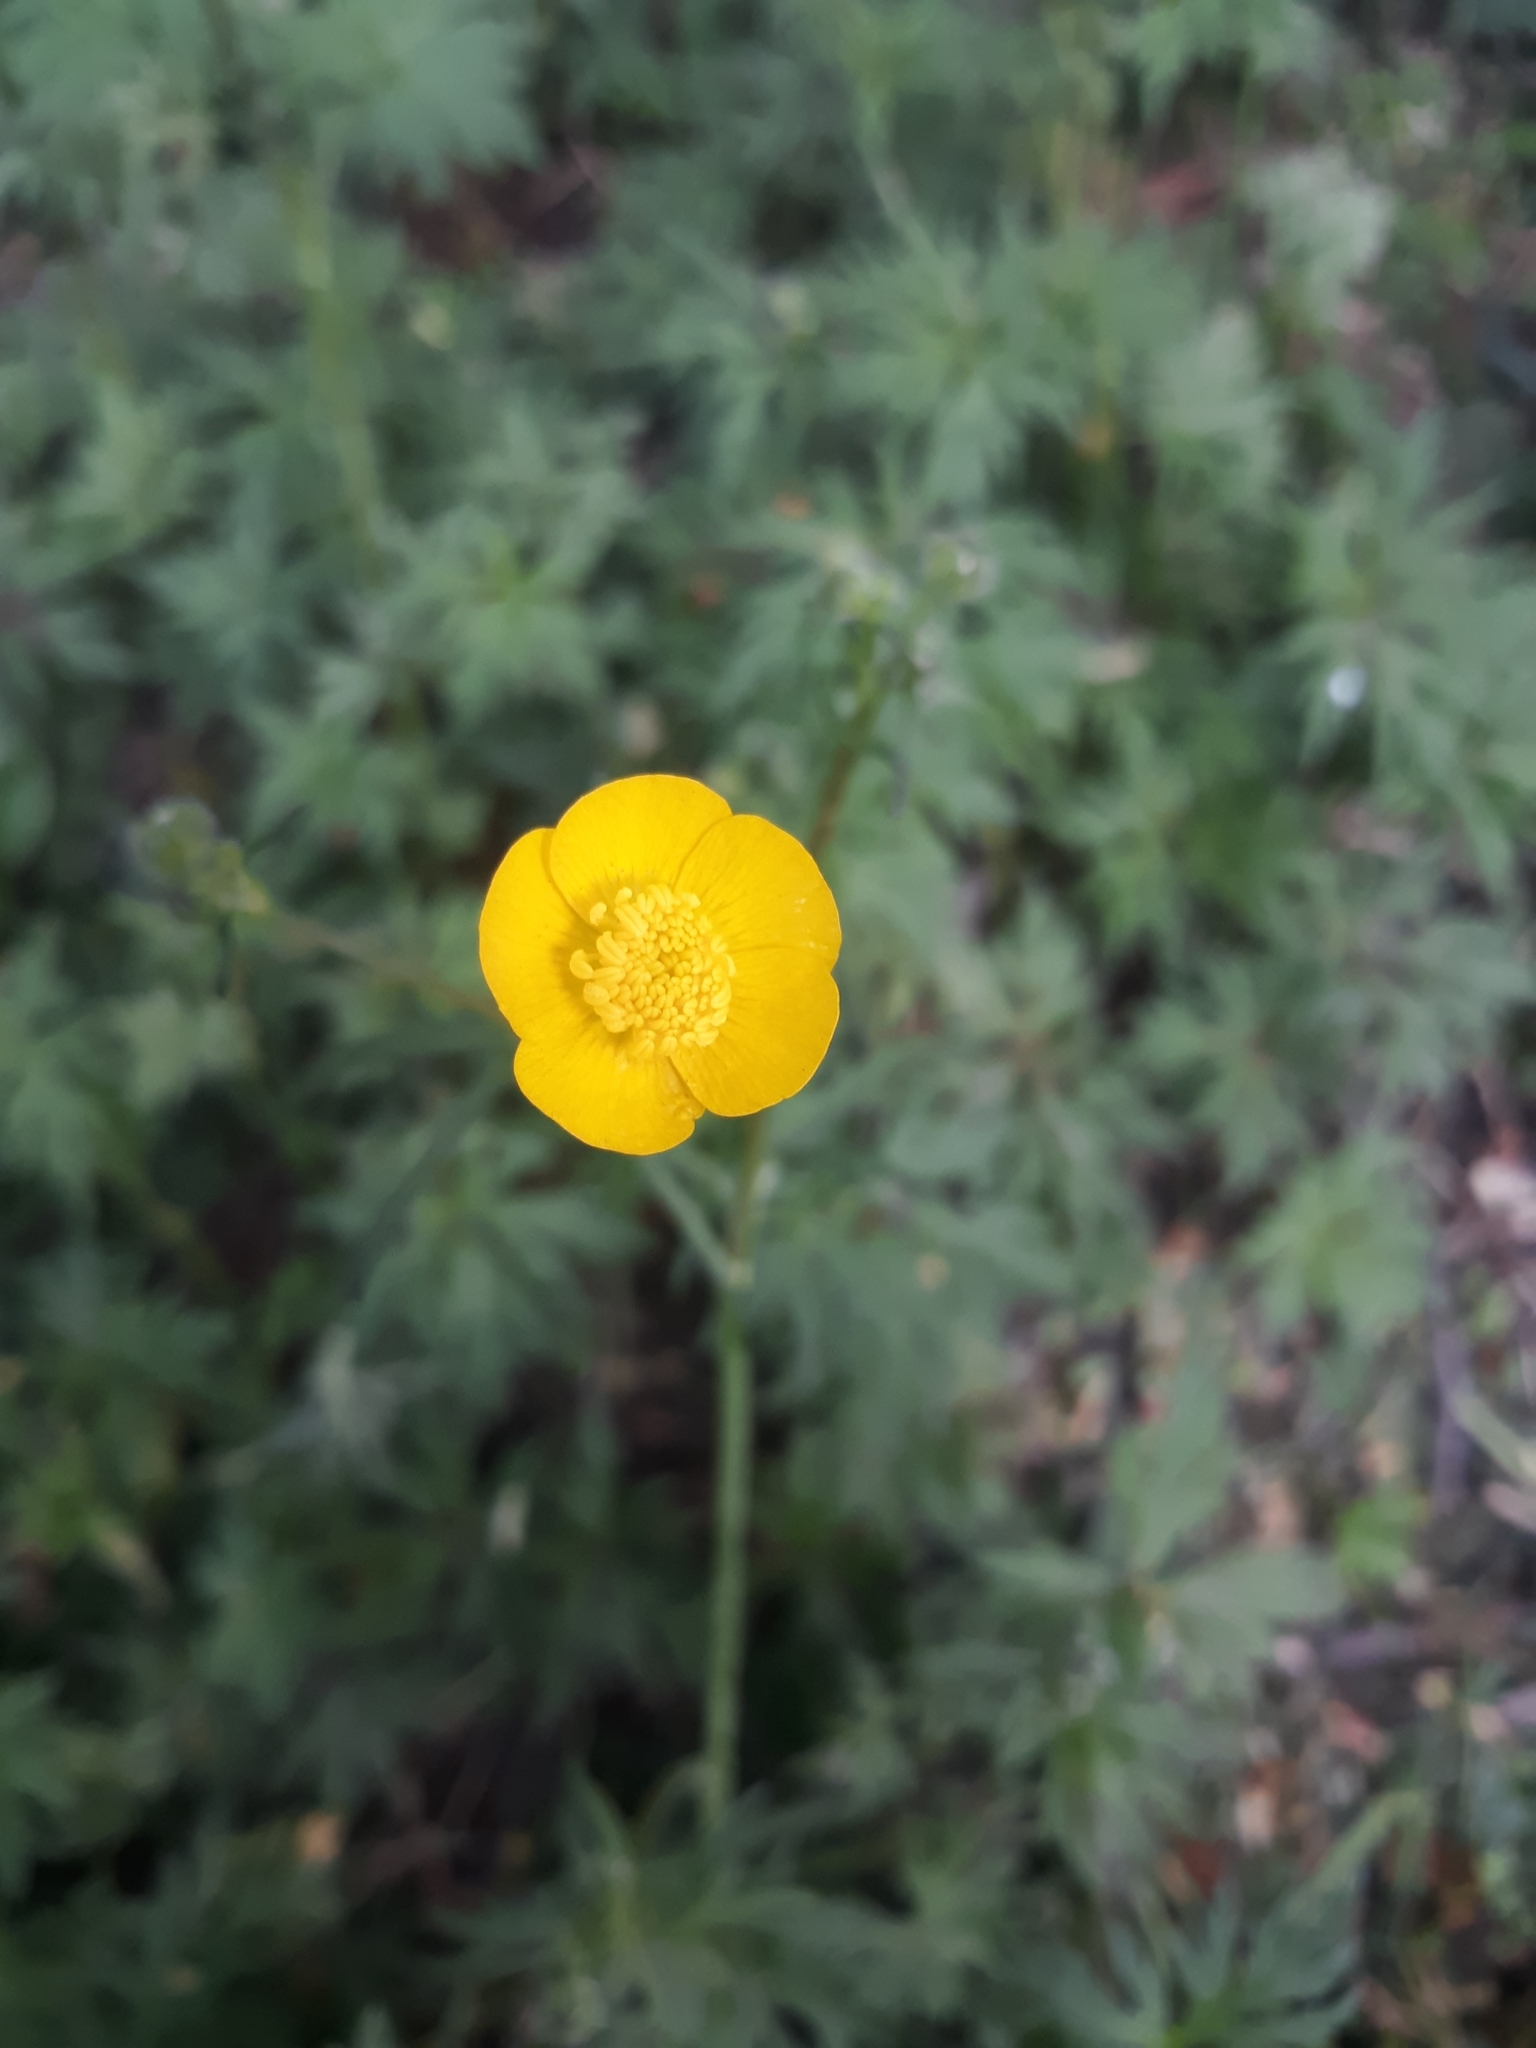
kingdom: Plantae
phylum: Tracheophyta
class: Magnoliopsida
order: Ranunculales
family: Ranunculaceae
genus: Ranunculus
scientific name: Ranunculus acris
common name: Meadow buttercup
